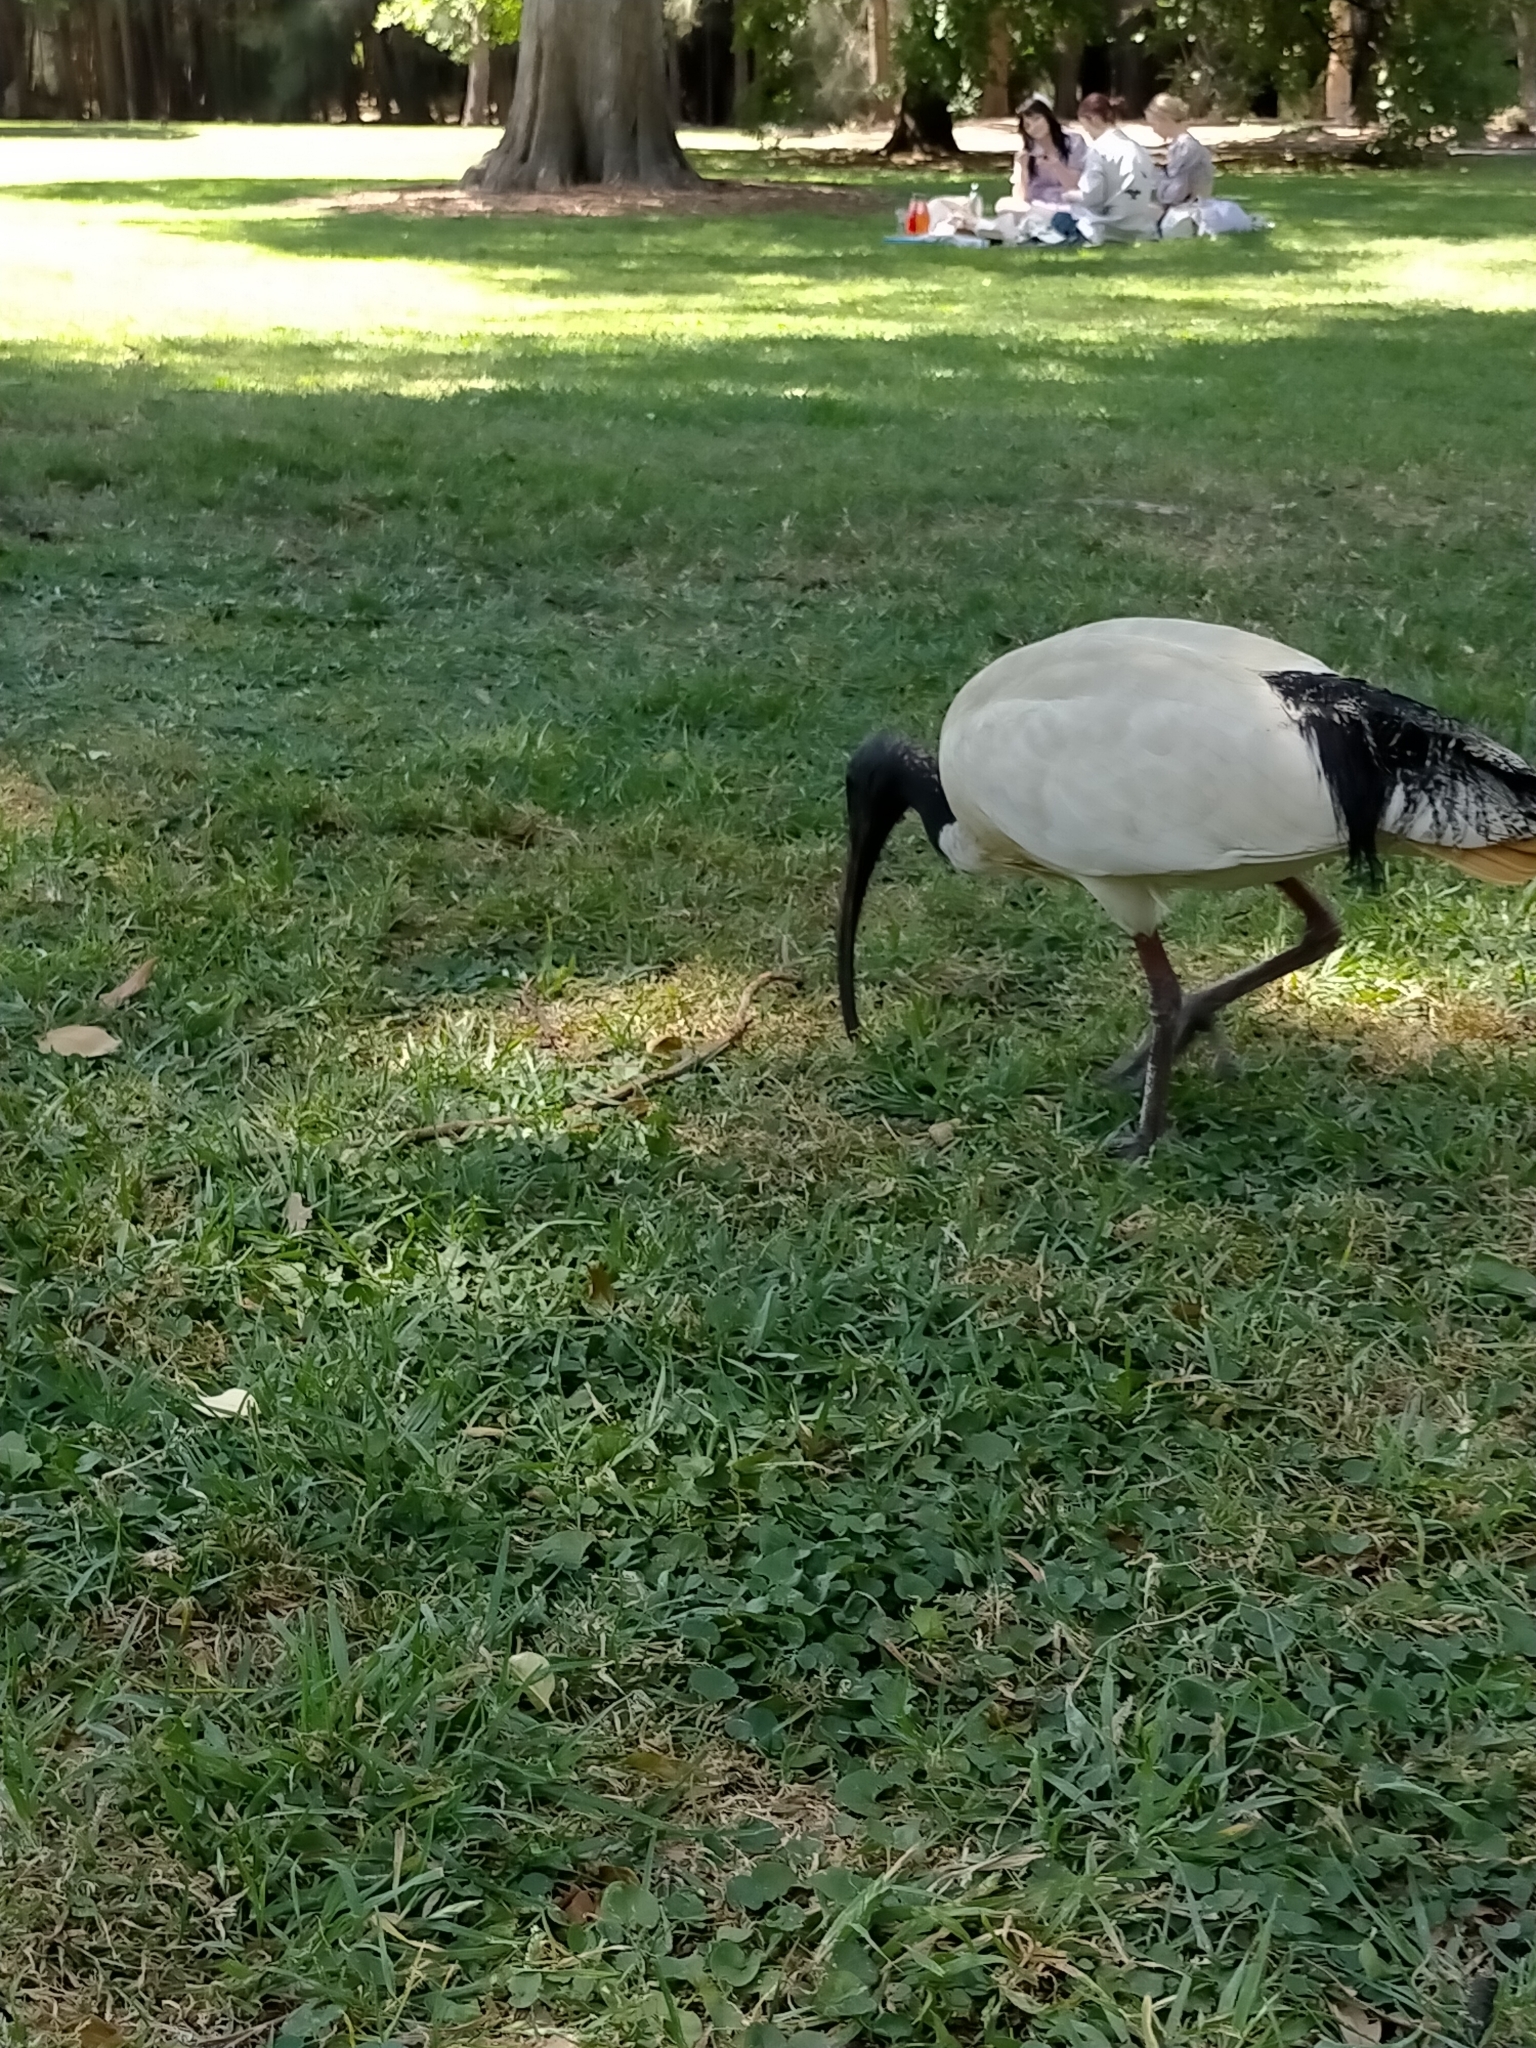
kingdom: Animalia
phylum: Chordata
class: Aves
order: Pelecaniformes
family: Threskiornithidae
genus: Threskiornis
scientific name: Threskiornis molucca
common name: Australian white ibis
